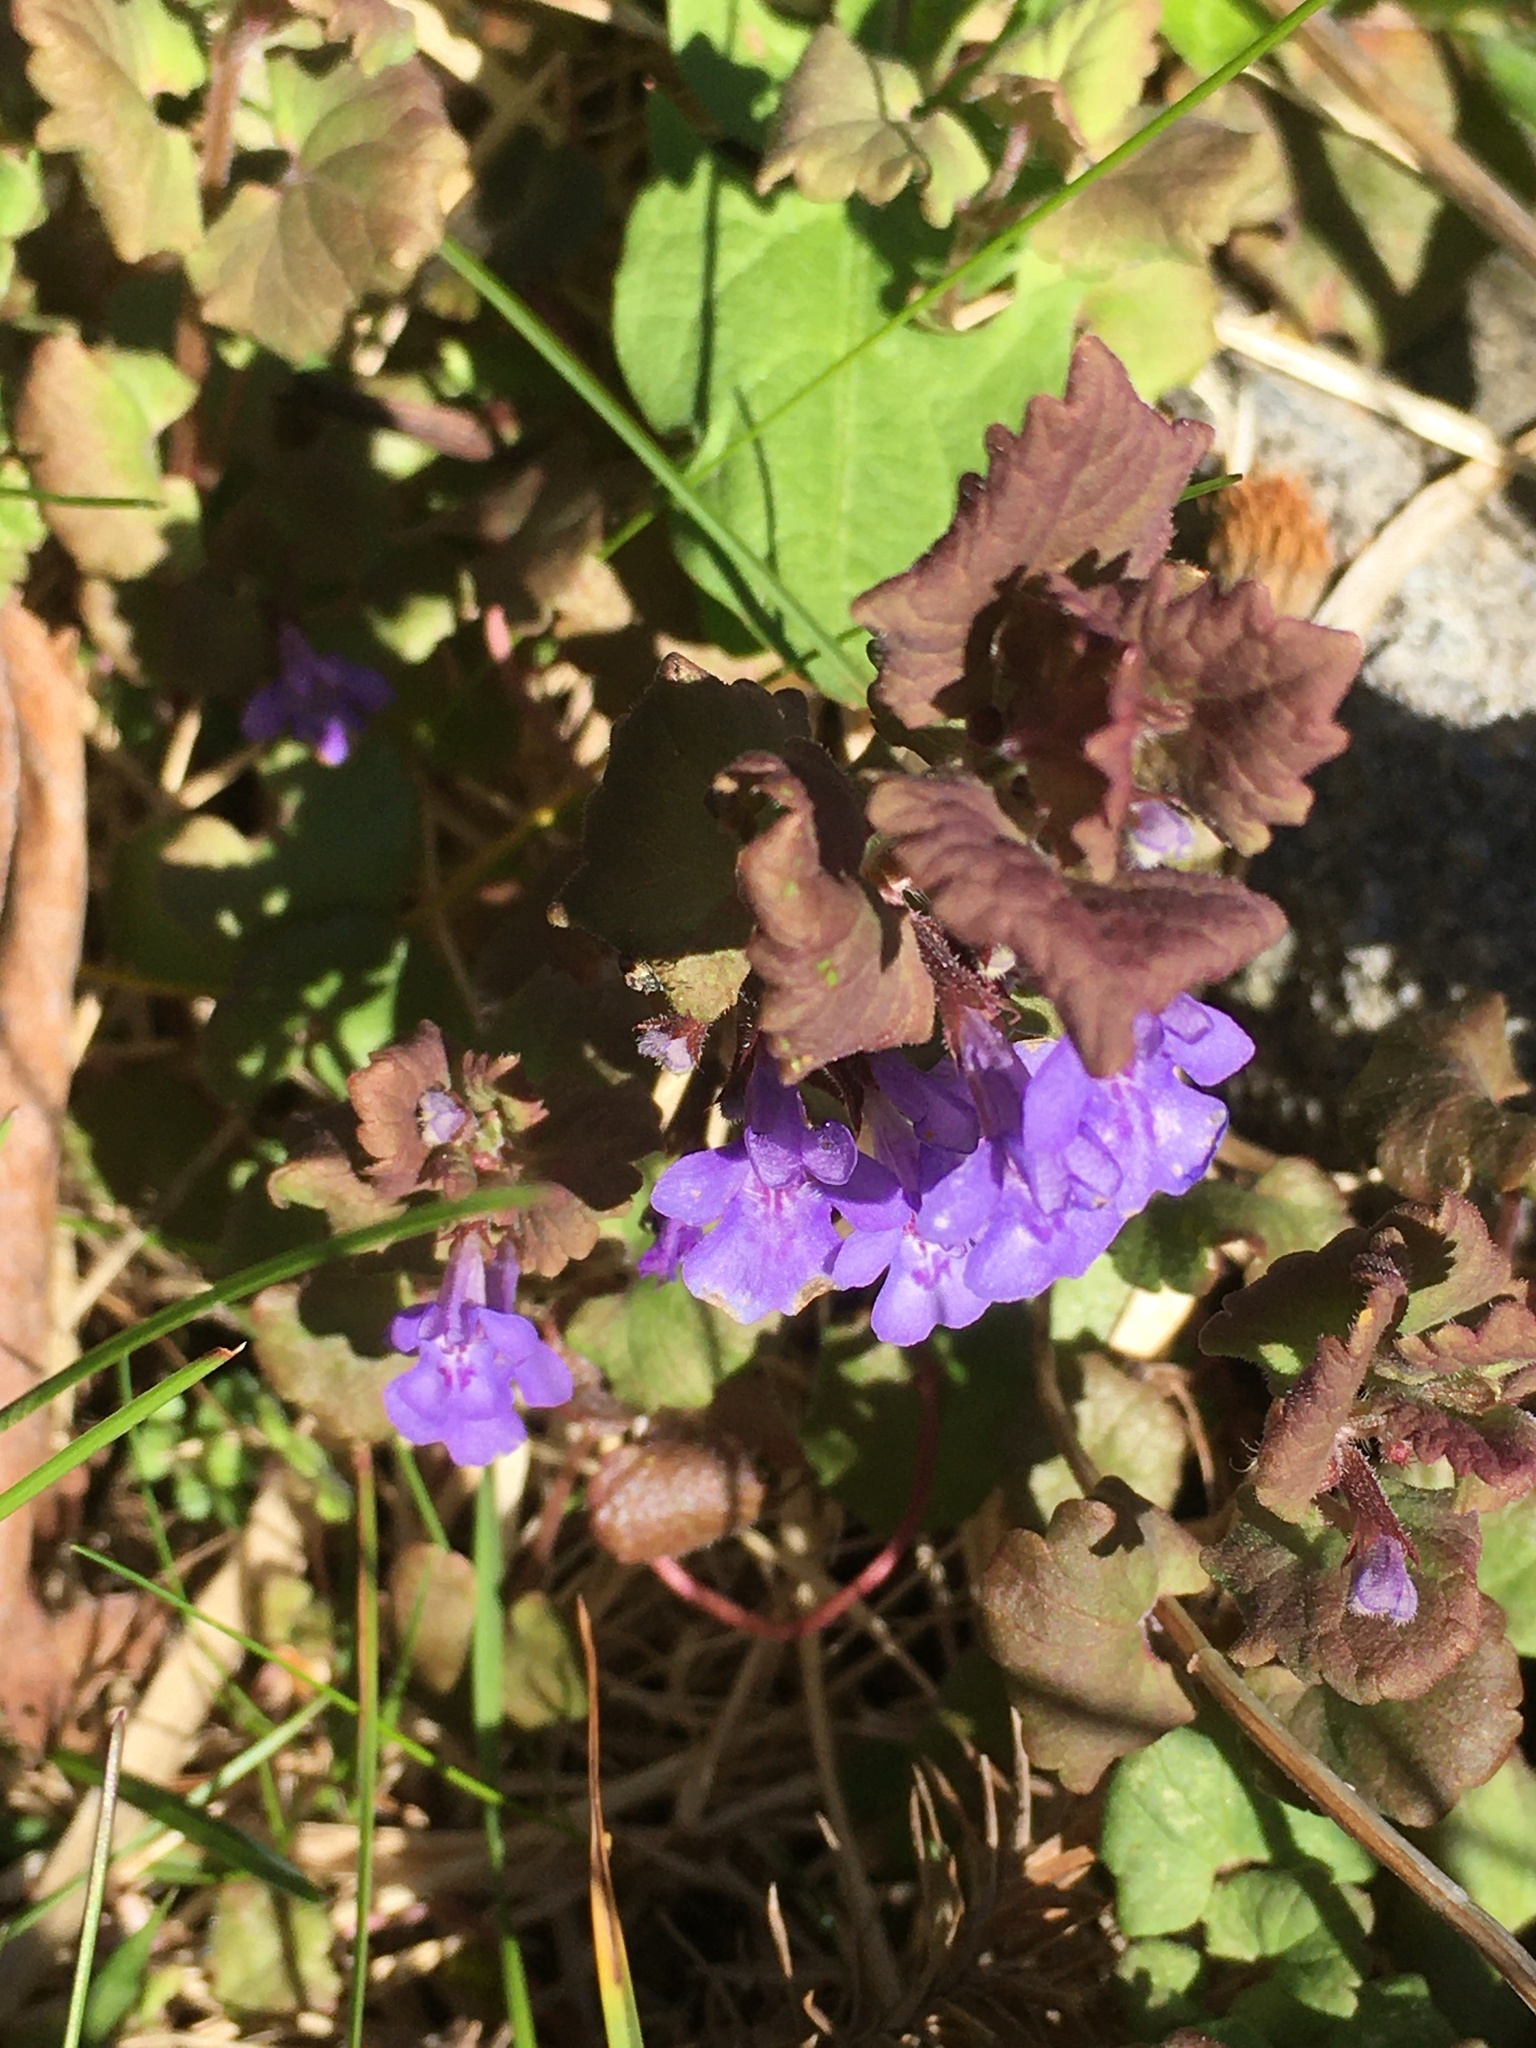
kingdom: Plantae
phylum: Tracheophyta
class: Magnoliopsida
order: Lamiales
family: Lamiaceae
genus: Glechoma
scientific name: Glechoma hederacea
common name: Ground ivy
